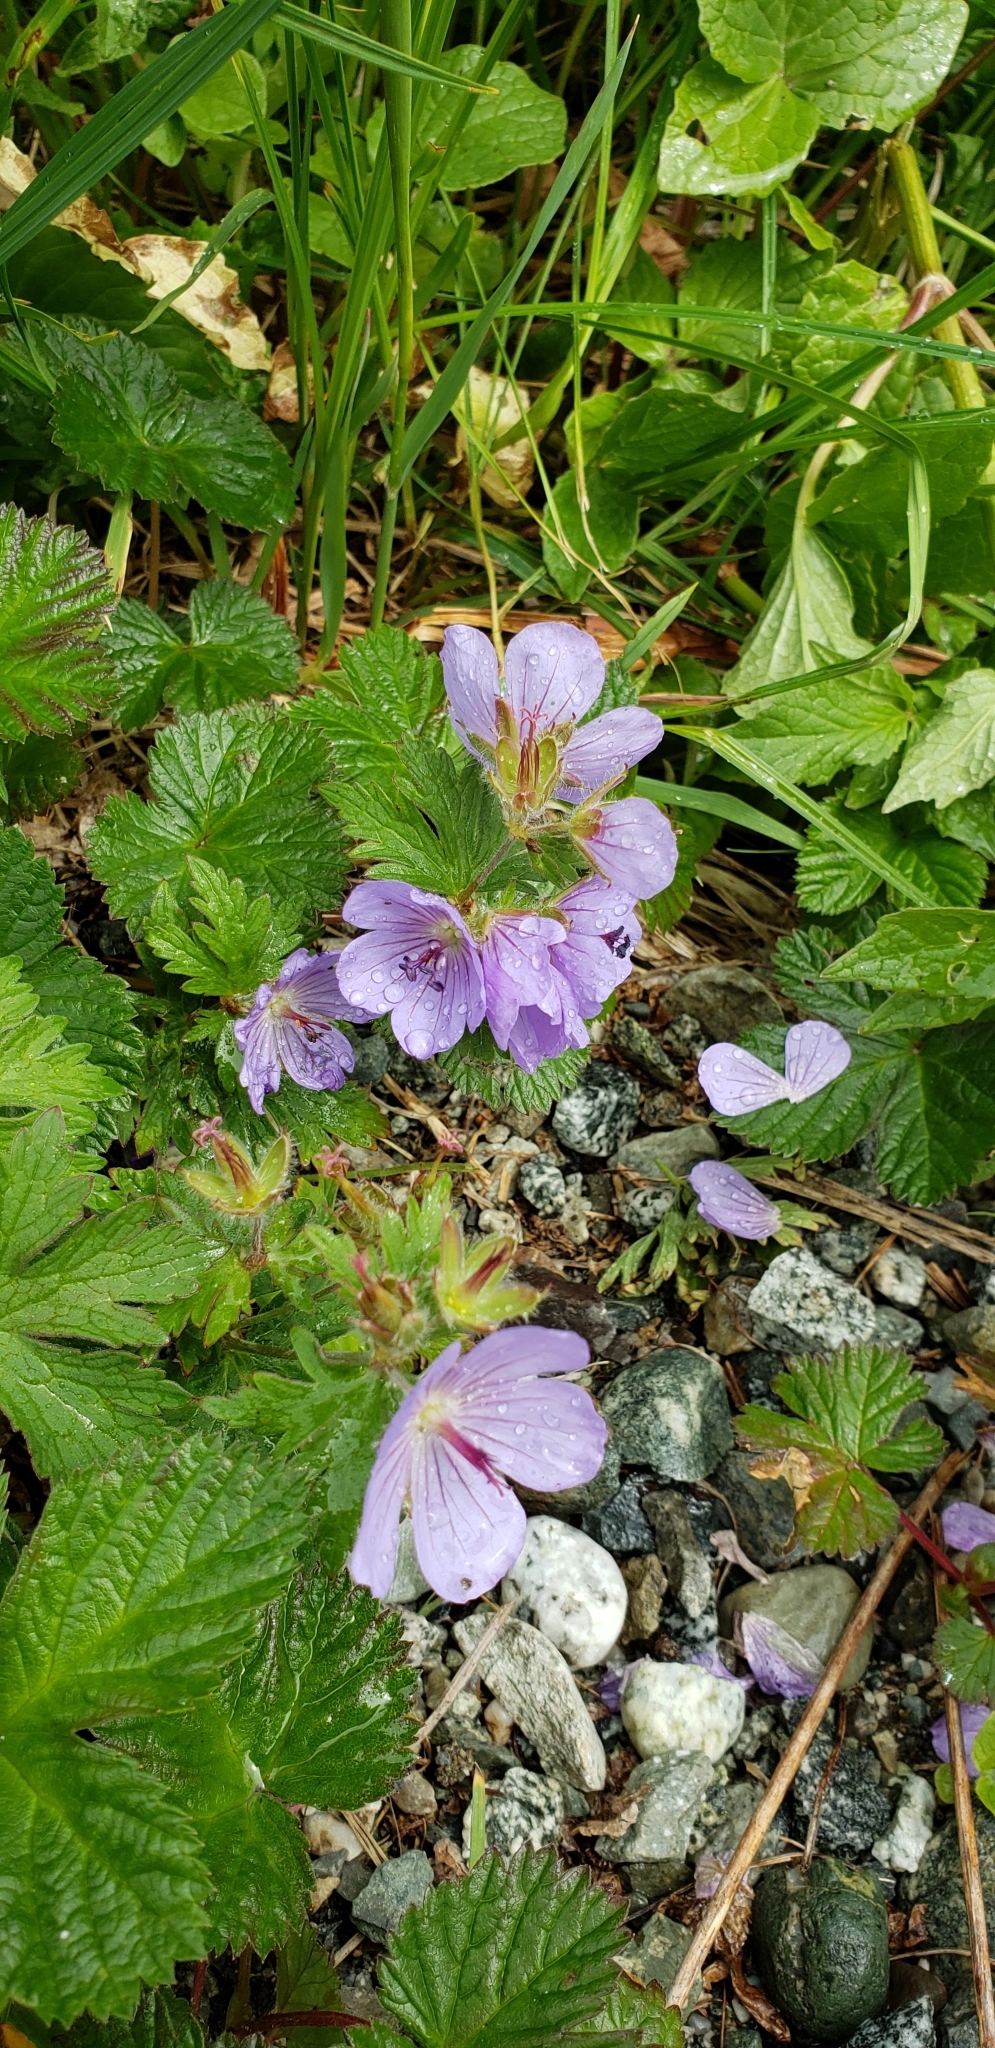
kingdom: Plantae
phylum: Tracheophyta
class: Magnoliopsida
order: Geraniales
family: Geraniaceae
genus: Geranium
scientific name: Geranium erianthum
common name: Northern crane's-bill
